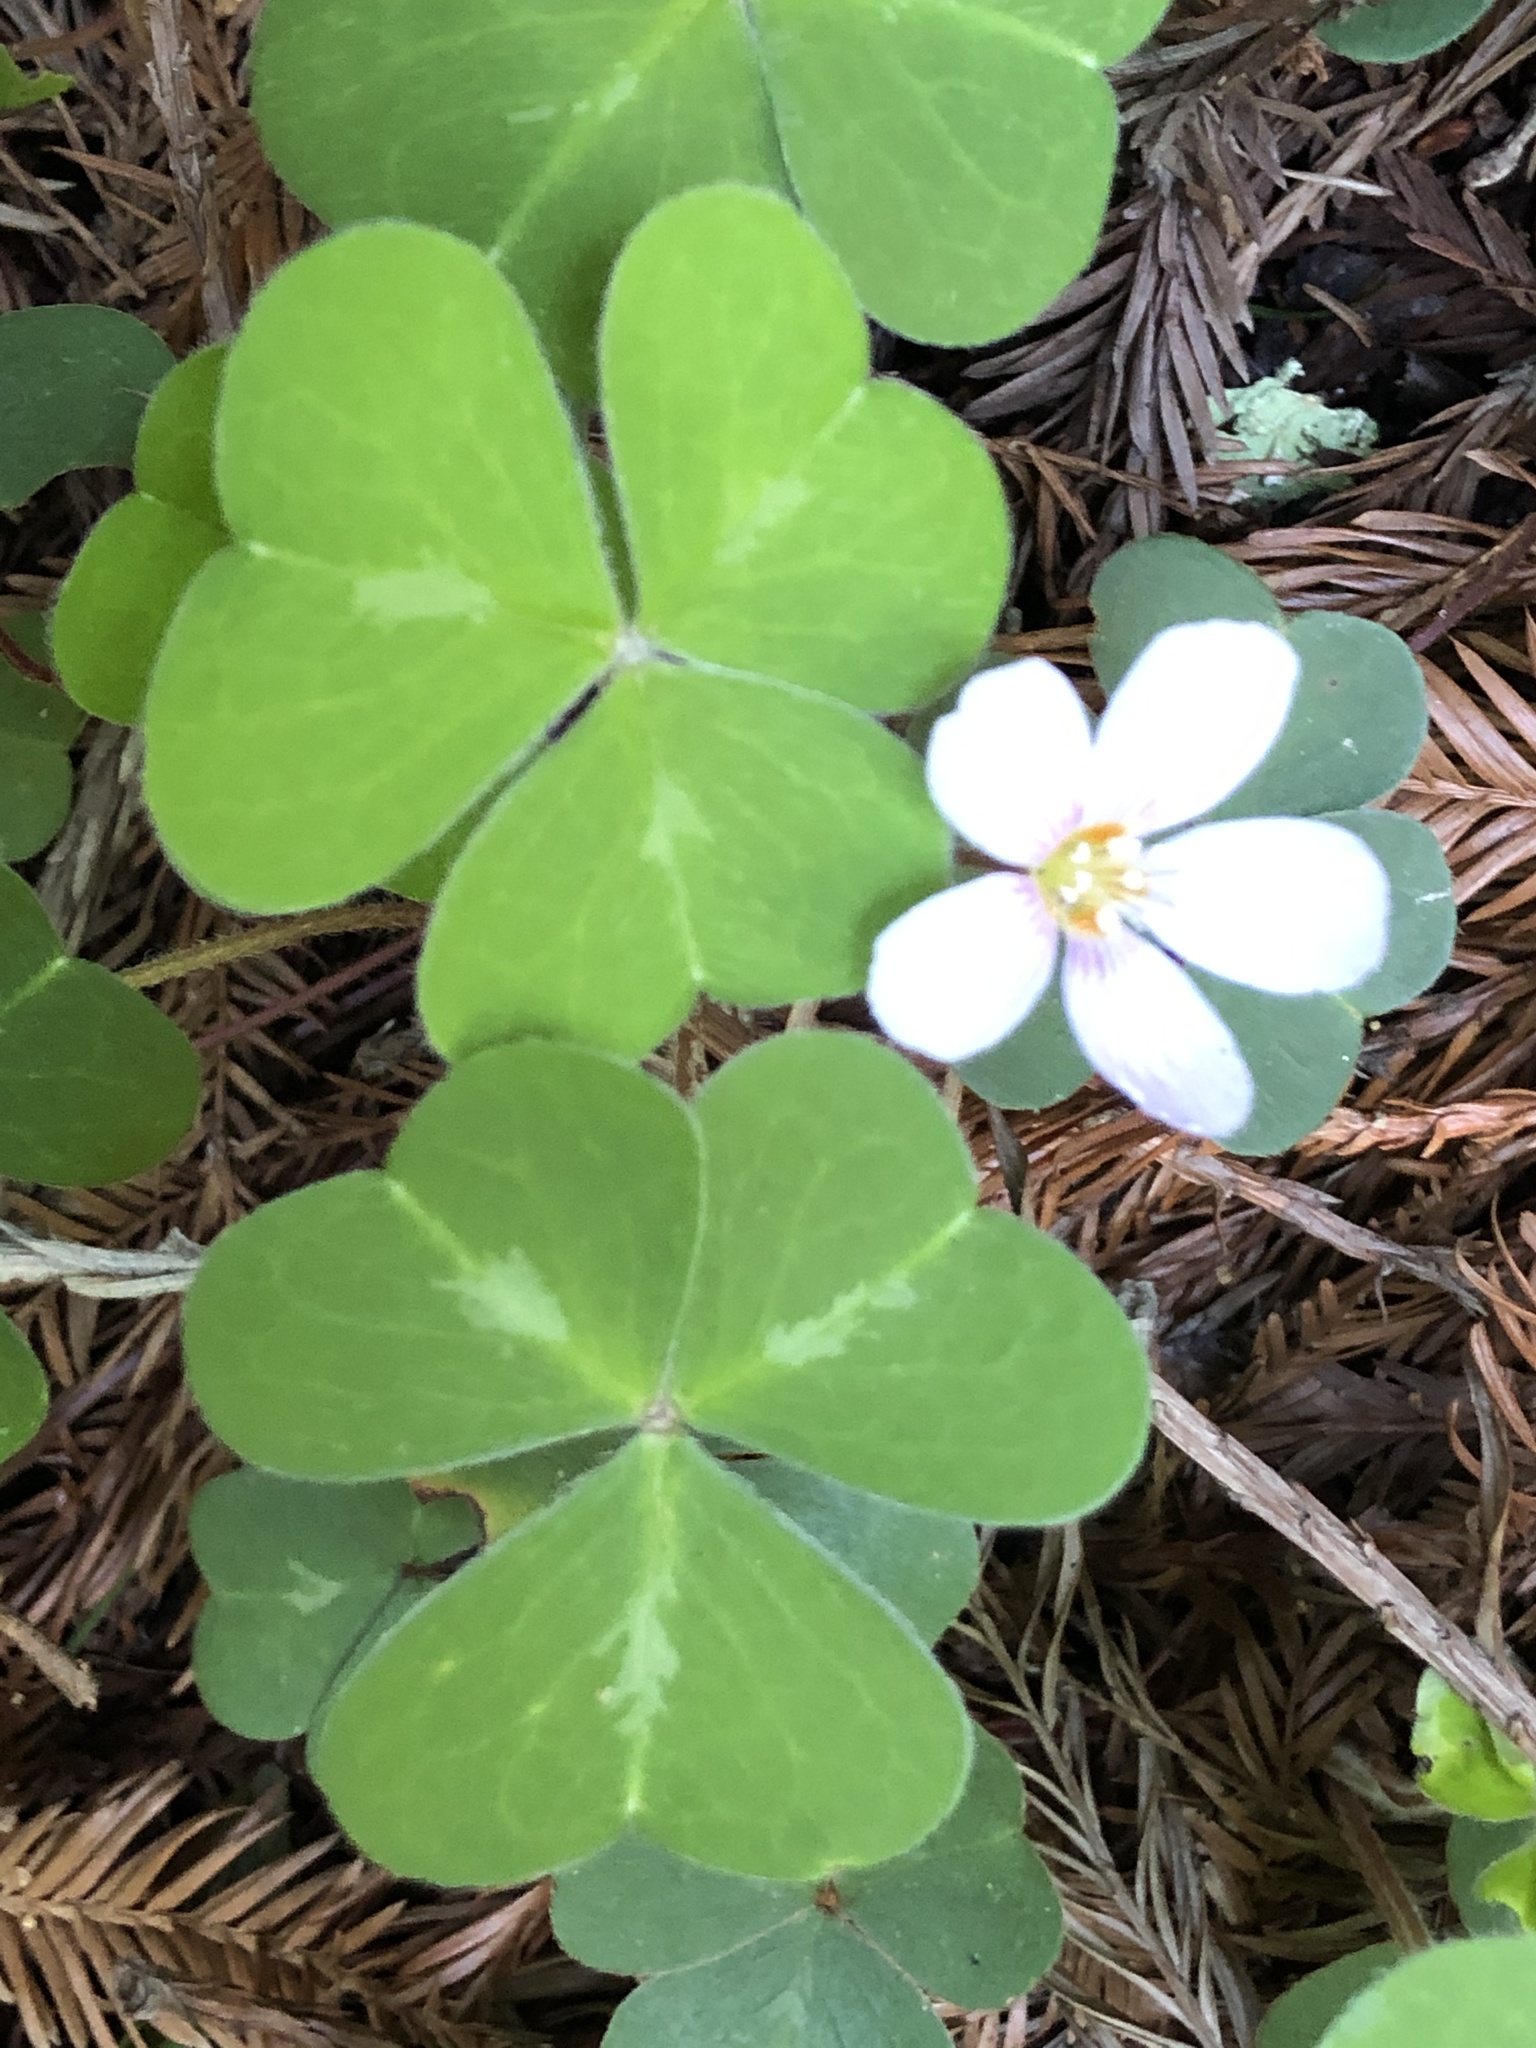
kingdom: Plantae
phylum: Tracheophyta
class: Magnoliopsida
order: Oxalidales
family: Oxalidaceae
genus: Oxalis
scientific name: Oxalis oregana
